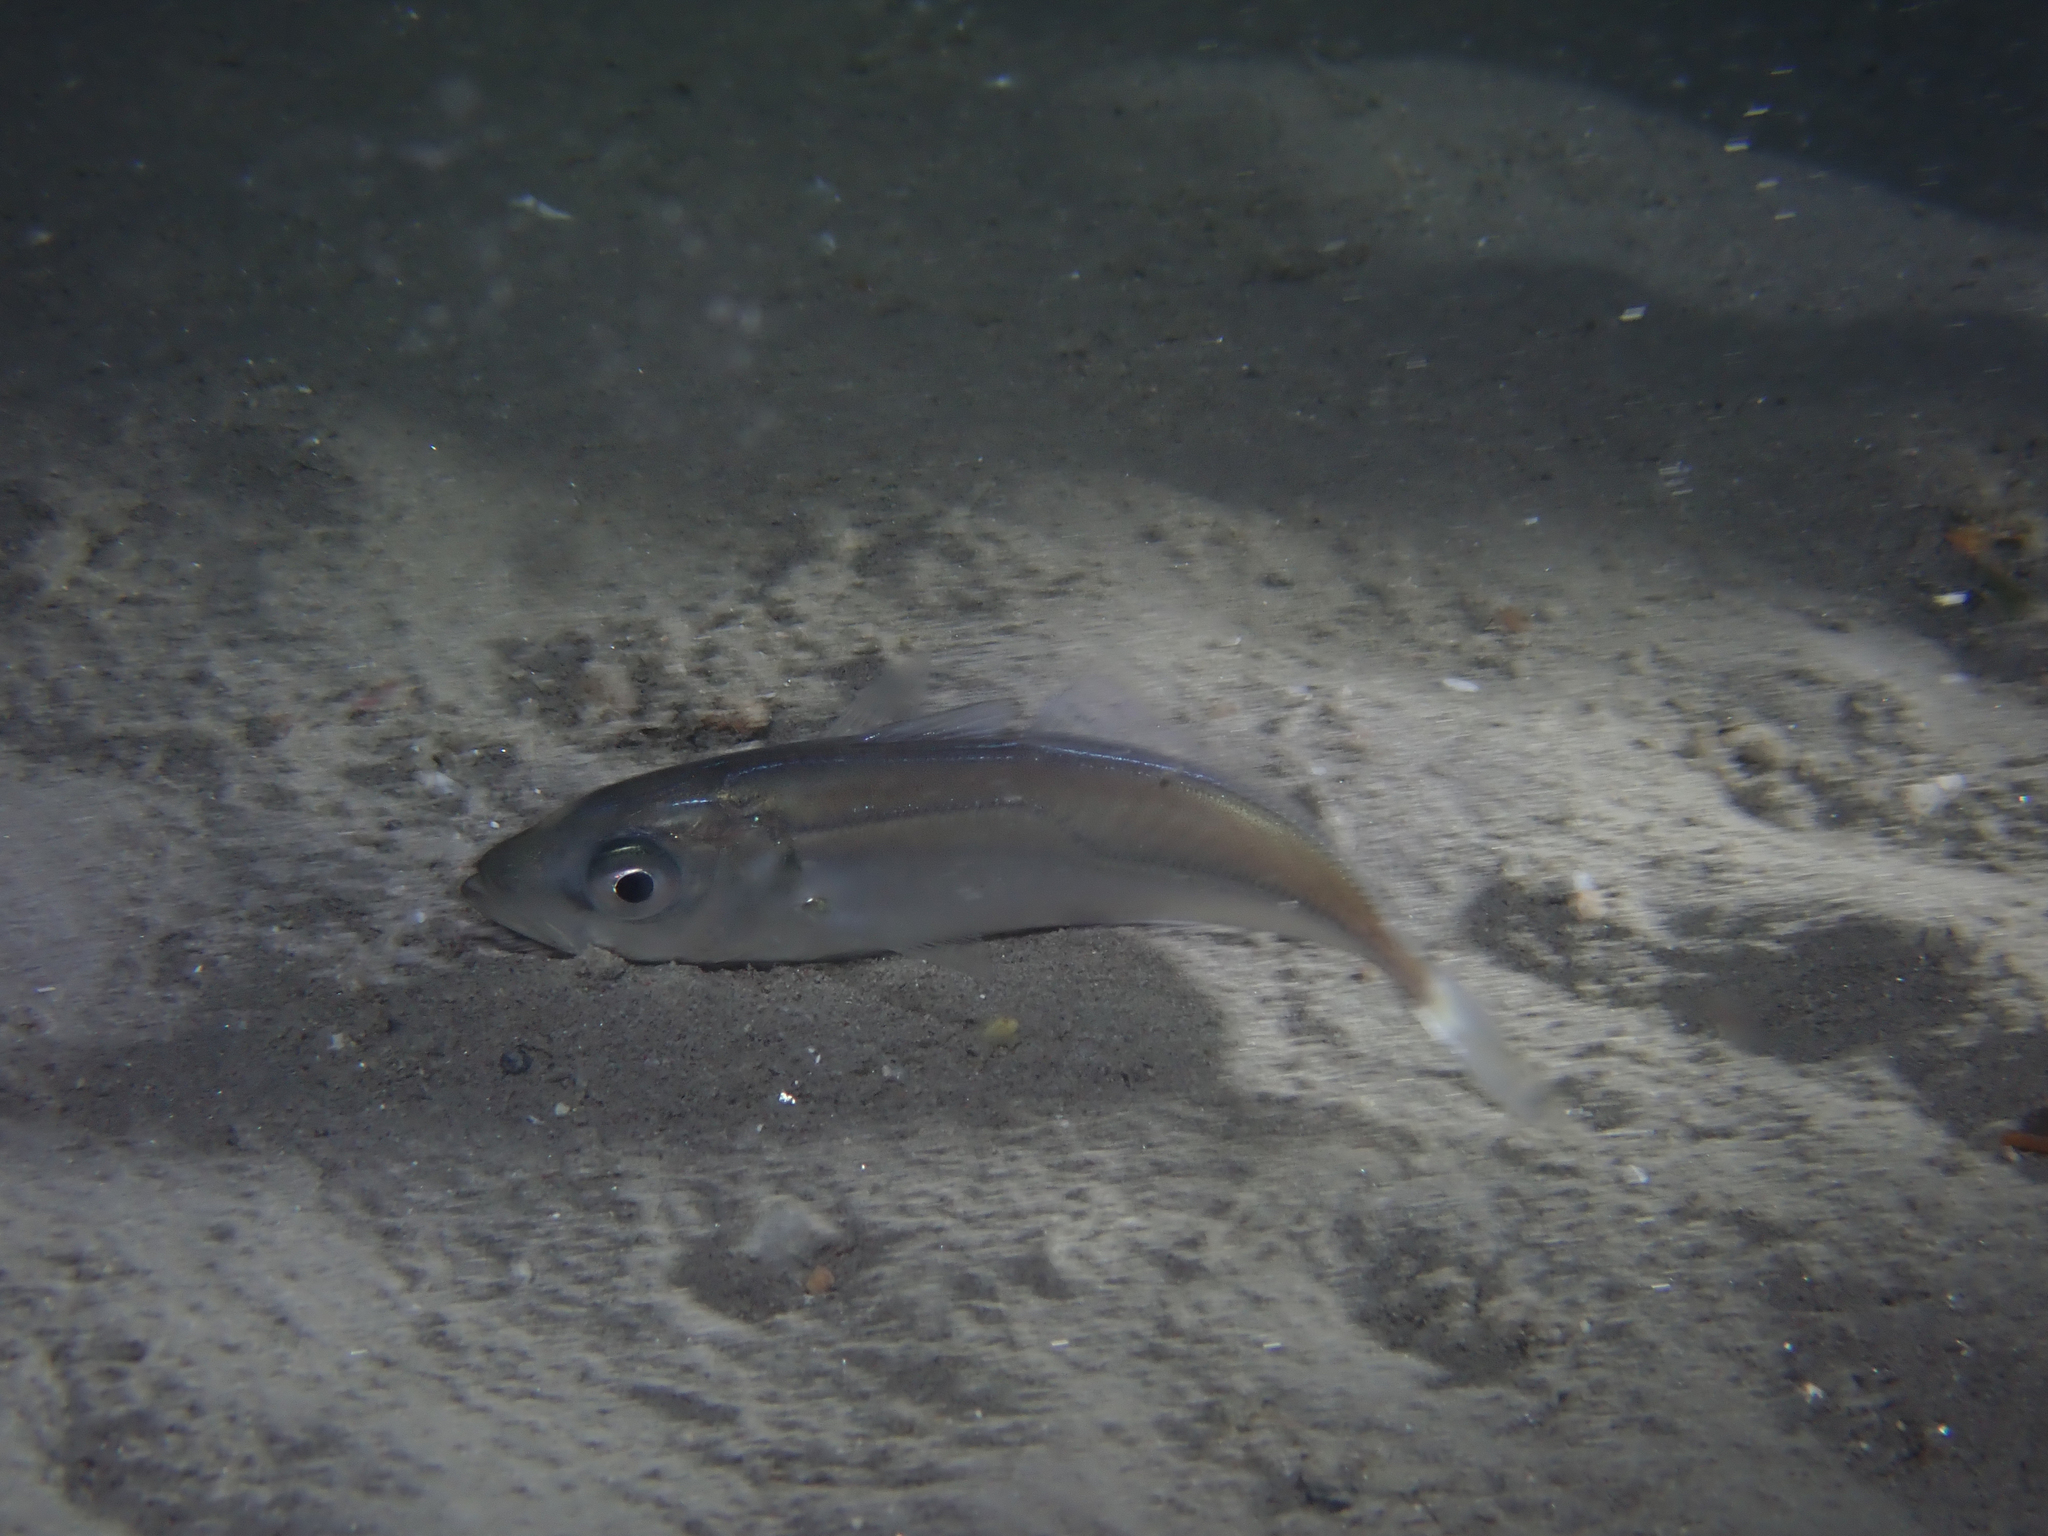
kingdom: Animalia
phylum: Chordata
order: Perciformes
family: Carangidae
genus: Trachurus
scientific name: Trachurus trachurus
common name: Horse mackerel
